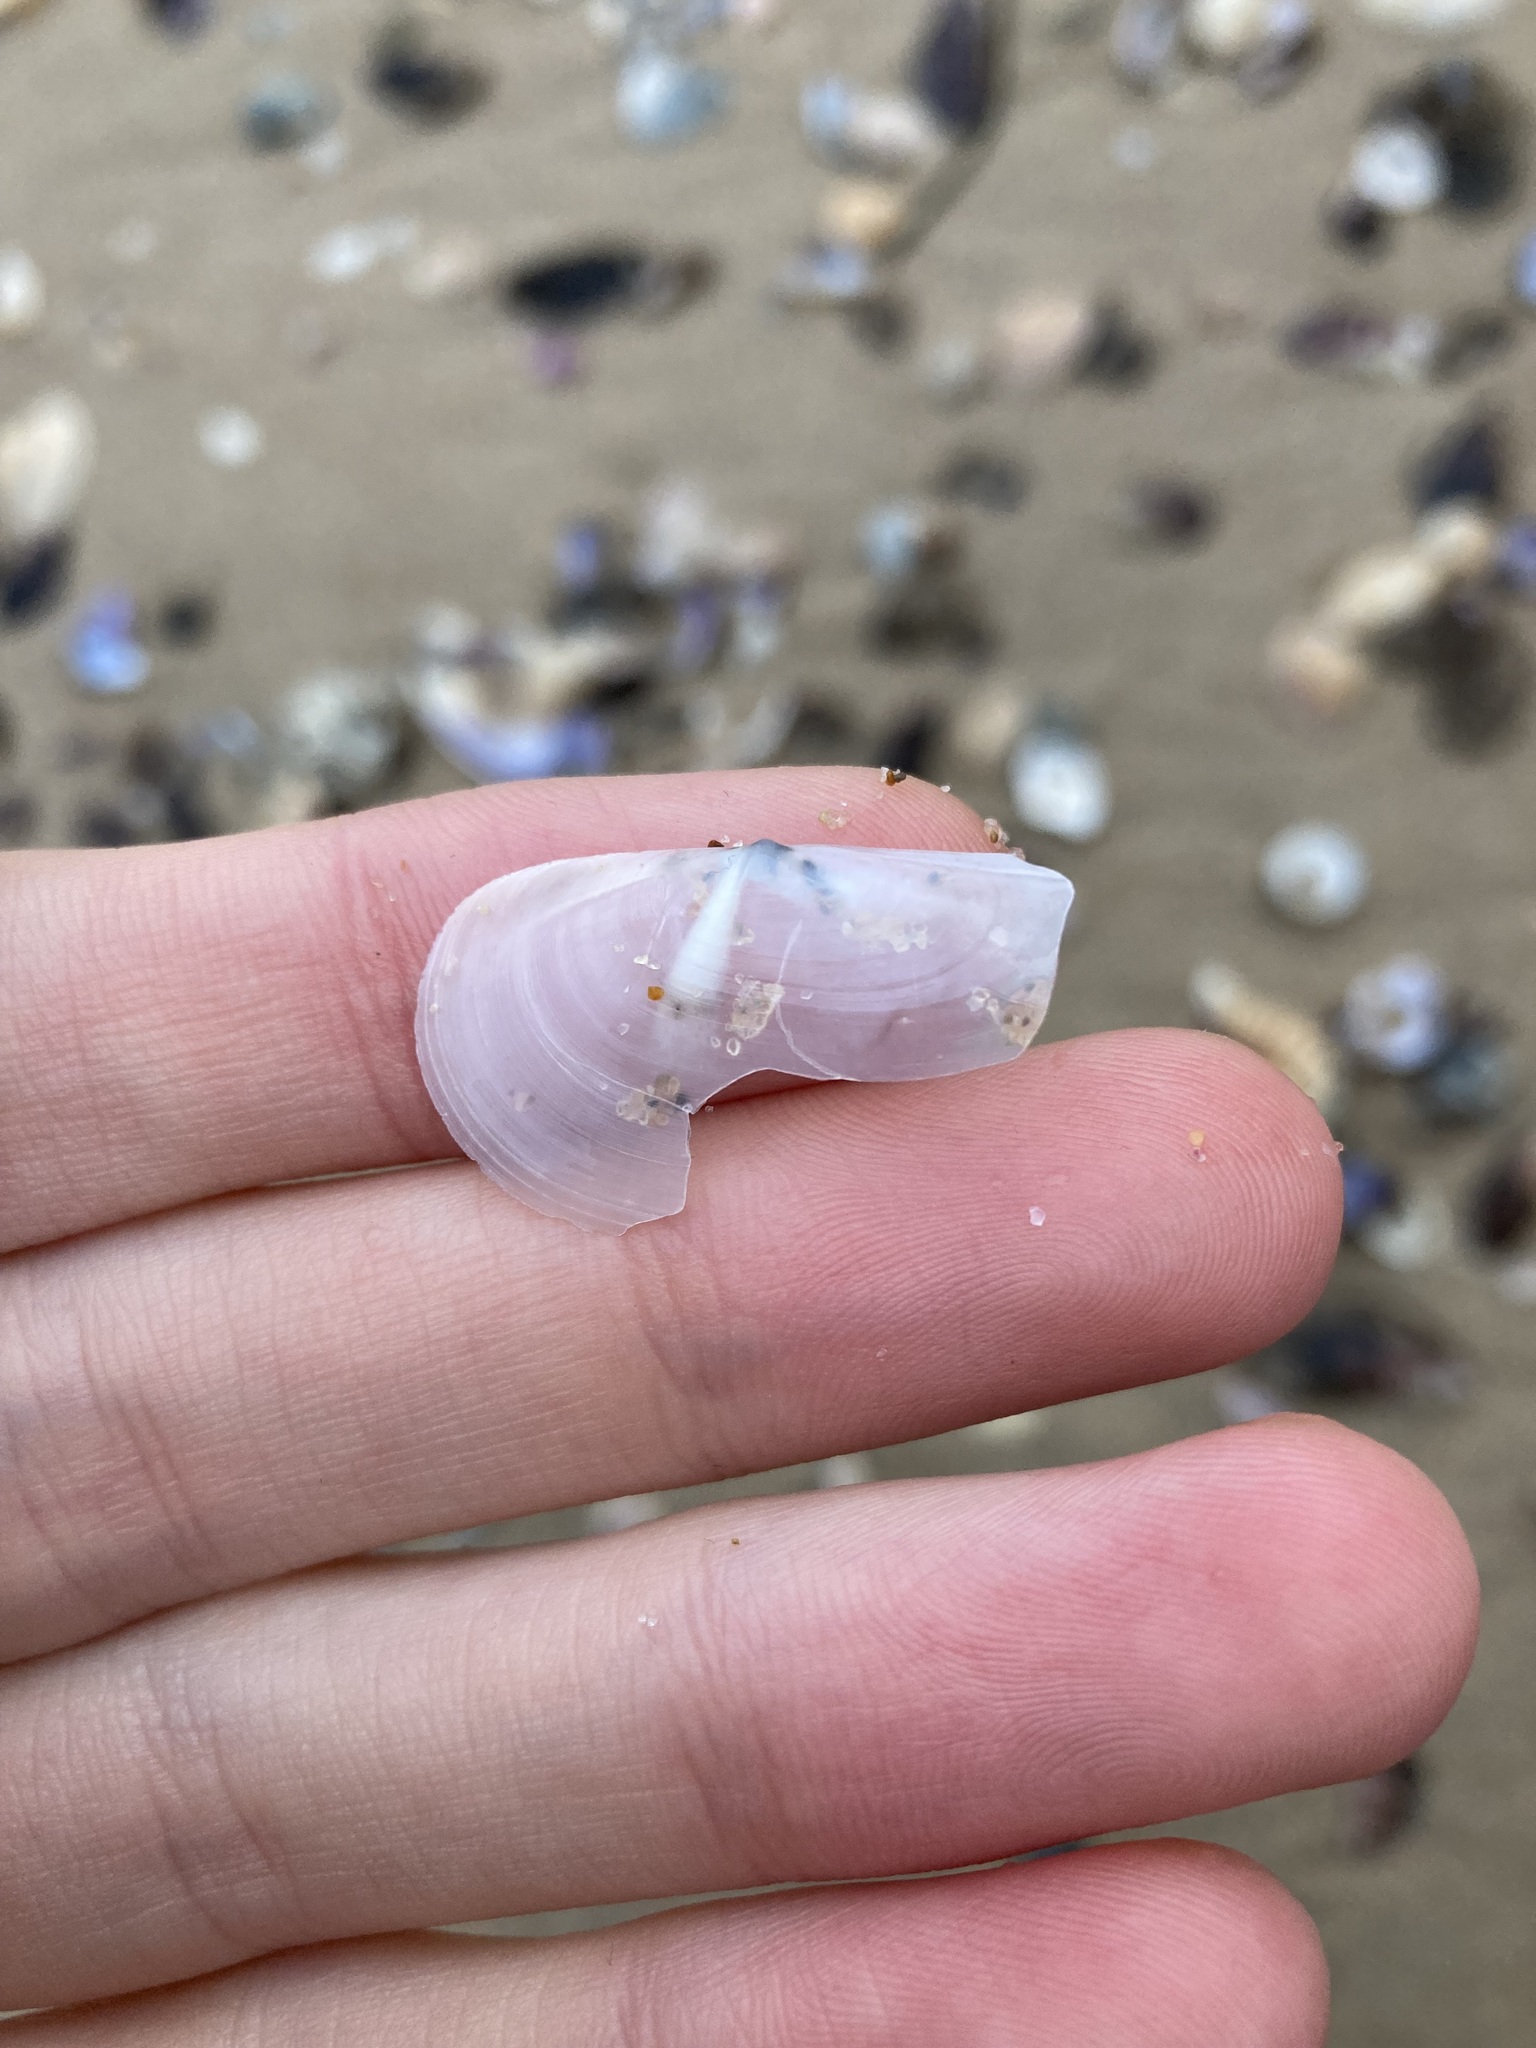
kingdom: Animalia
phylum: Mollusca
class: Bivalvia
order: Venerida
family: Mactridae
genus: Zenatina
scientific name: Zenatina victoriae
